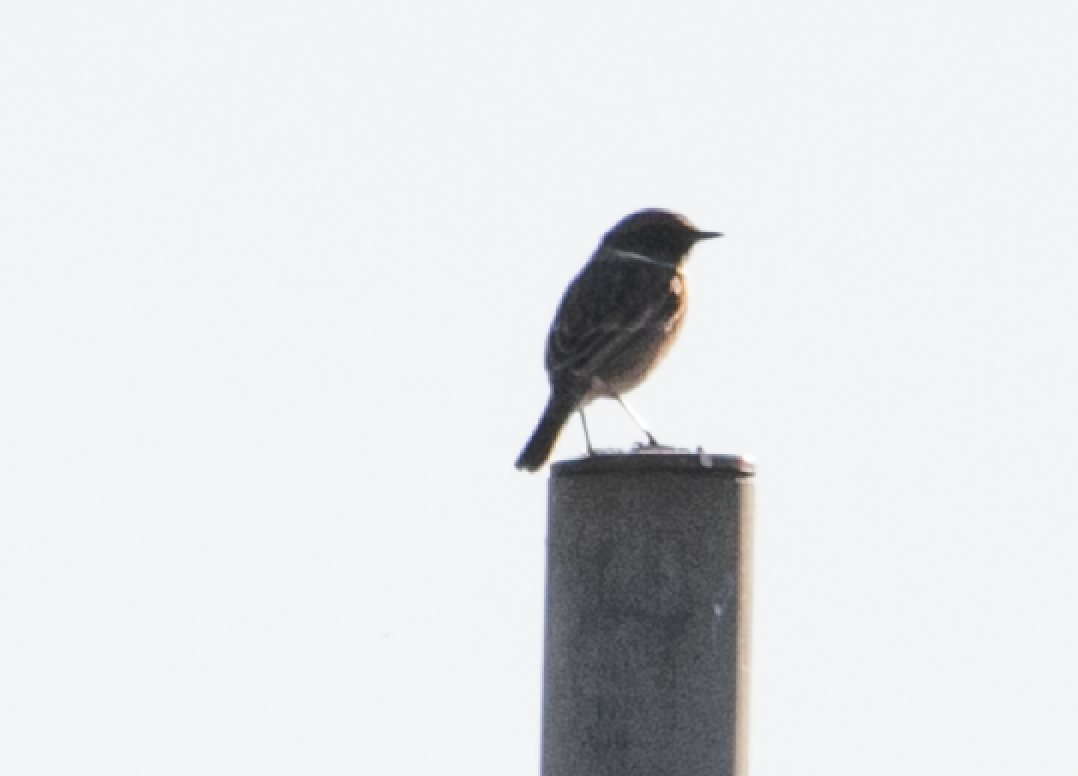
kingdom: Animalia
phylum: Chordata
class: Aves
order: Passeriformes
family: Muscicapidae
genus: Saxicola
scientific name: Saxicola rubicola
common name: European stonechat
